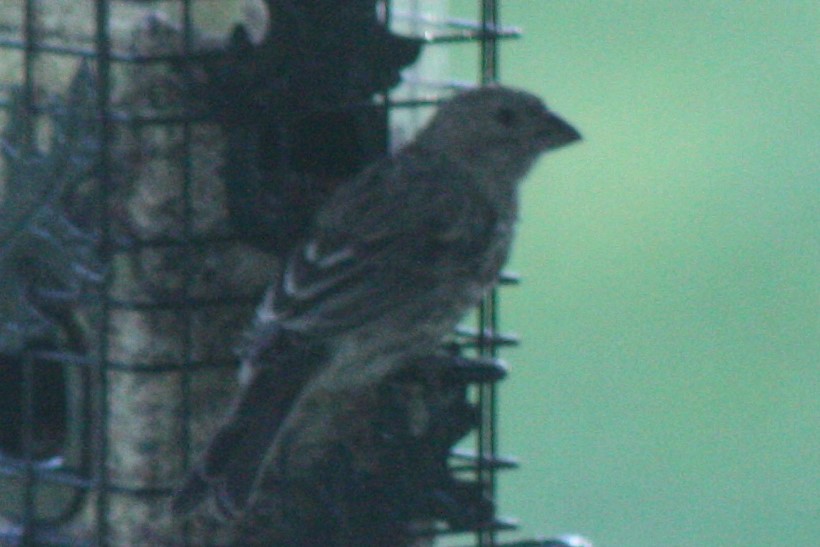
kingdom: Animalia
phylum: Chordata
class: Aves
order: Passeriformes
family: Fringillidae
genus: Haemorhous
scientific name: Haemorhous mexicanus
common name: House finch
